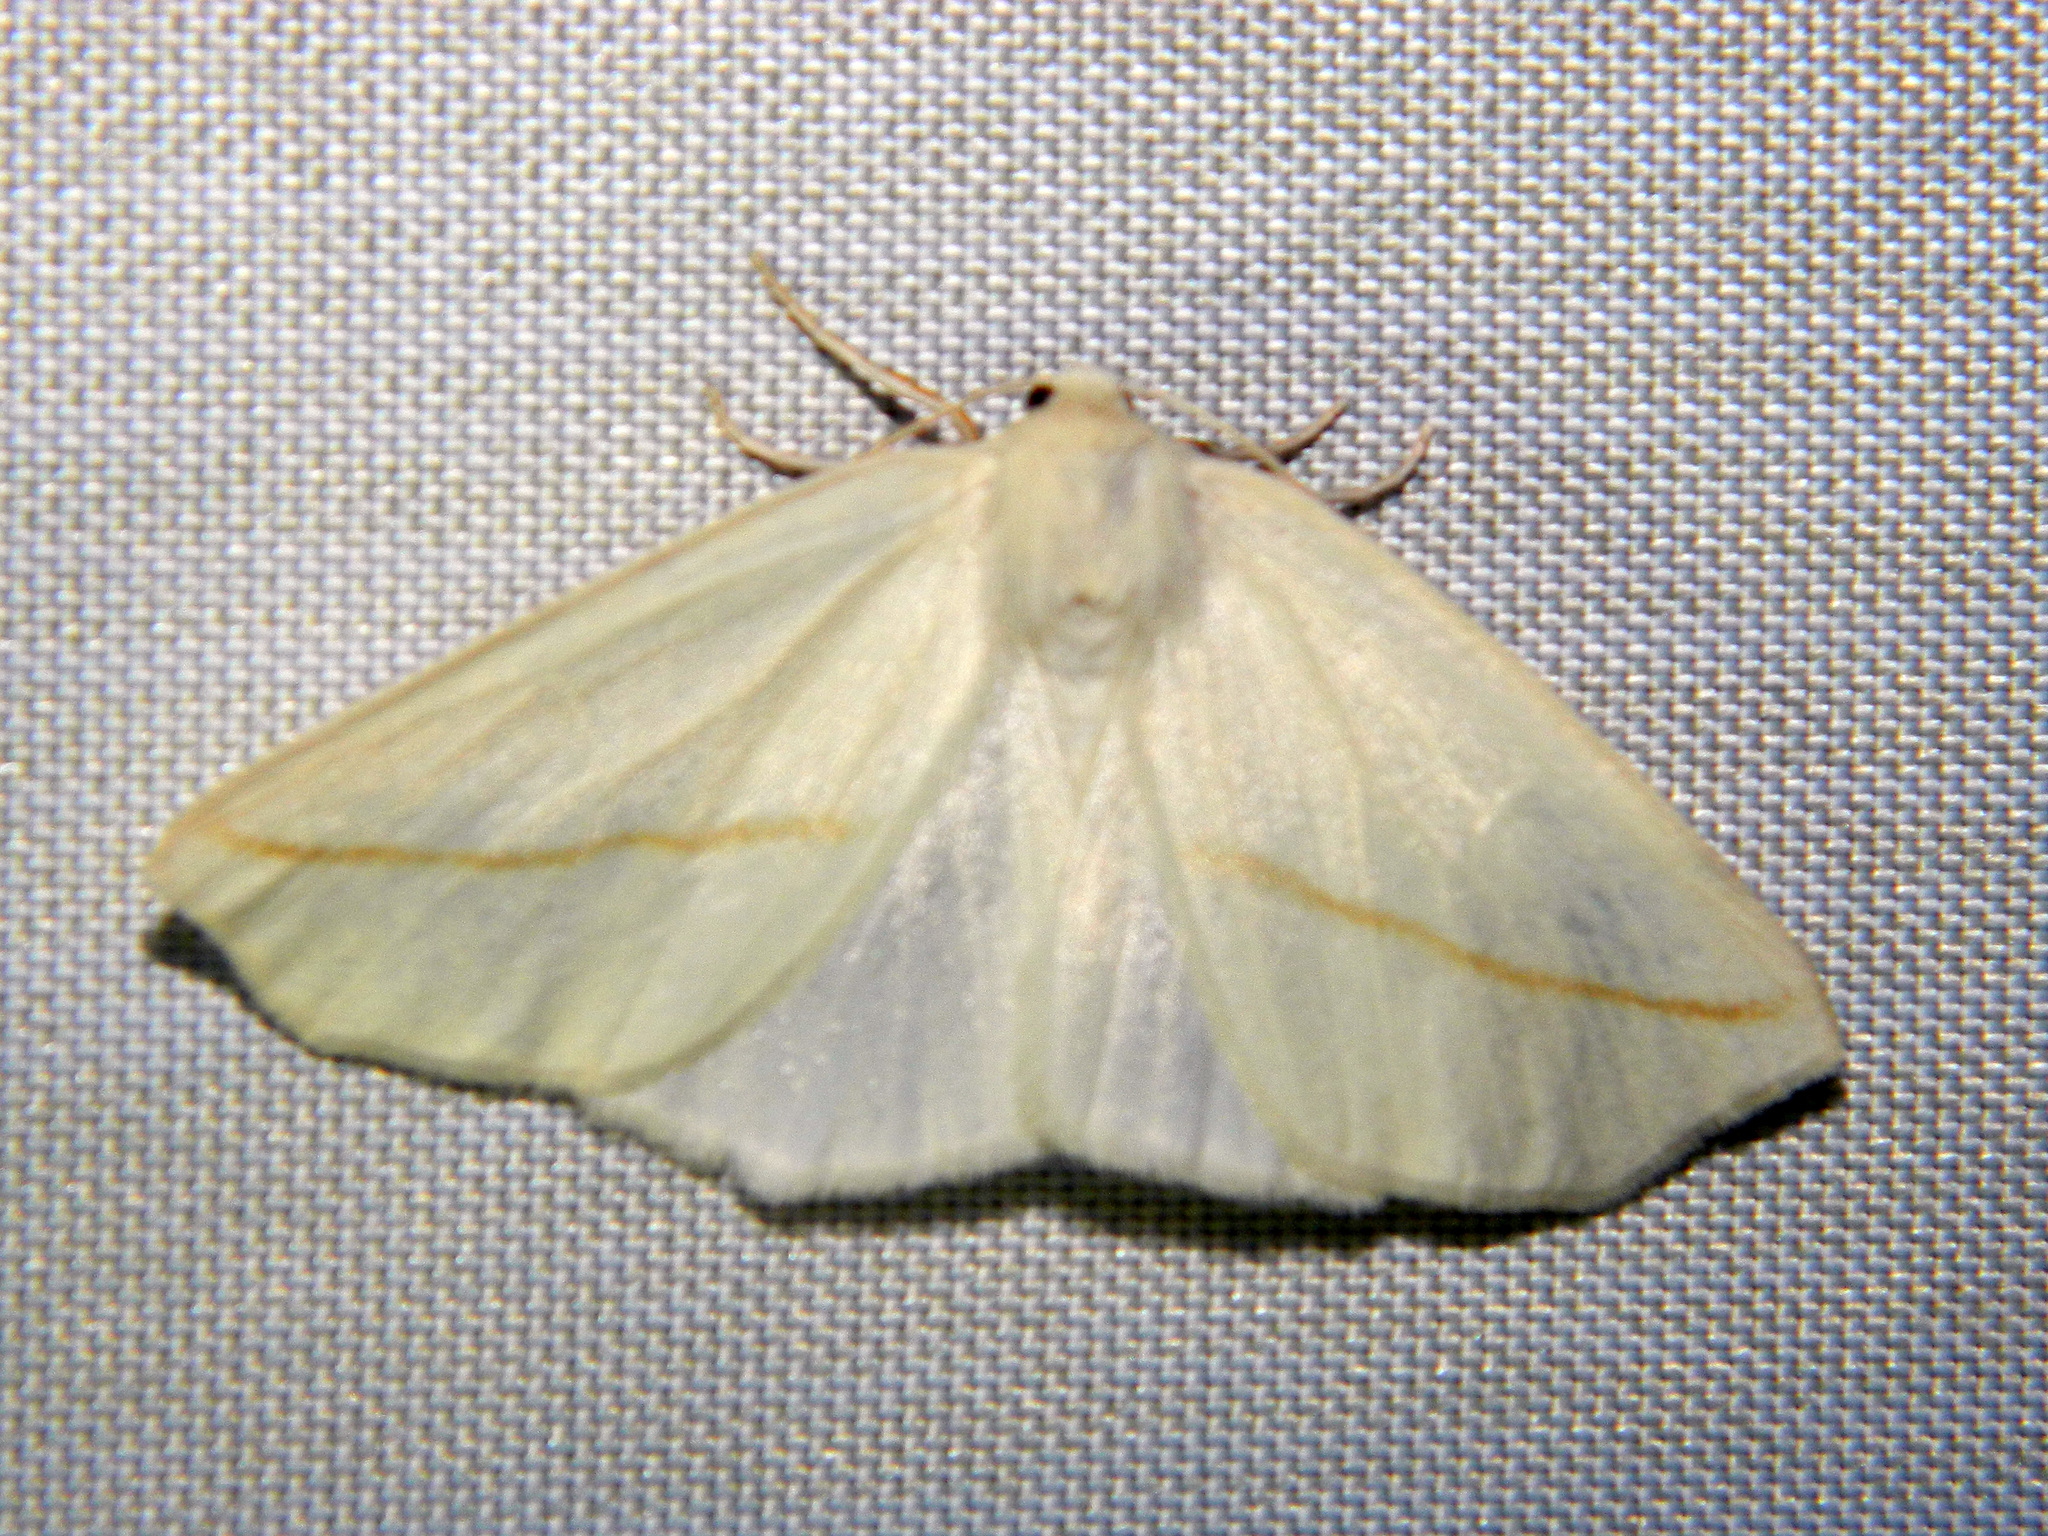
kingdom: Animalia
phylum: Arthropoda
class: Insecta
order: Lepidoptera
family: Geometridae
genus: Tetracis
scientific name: Tetracis cachexiata
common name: White slant-line
